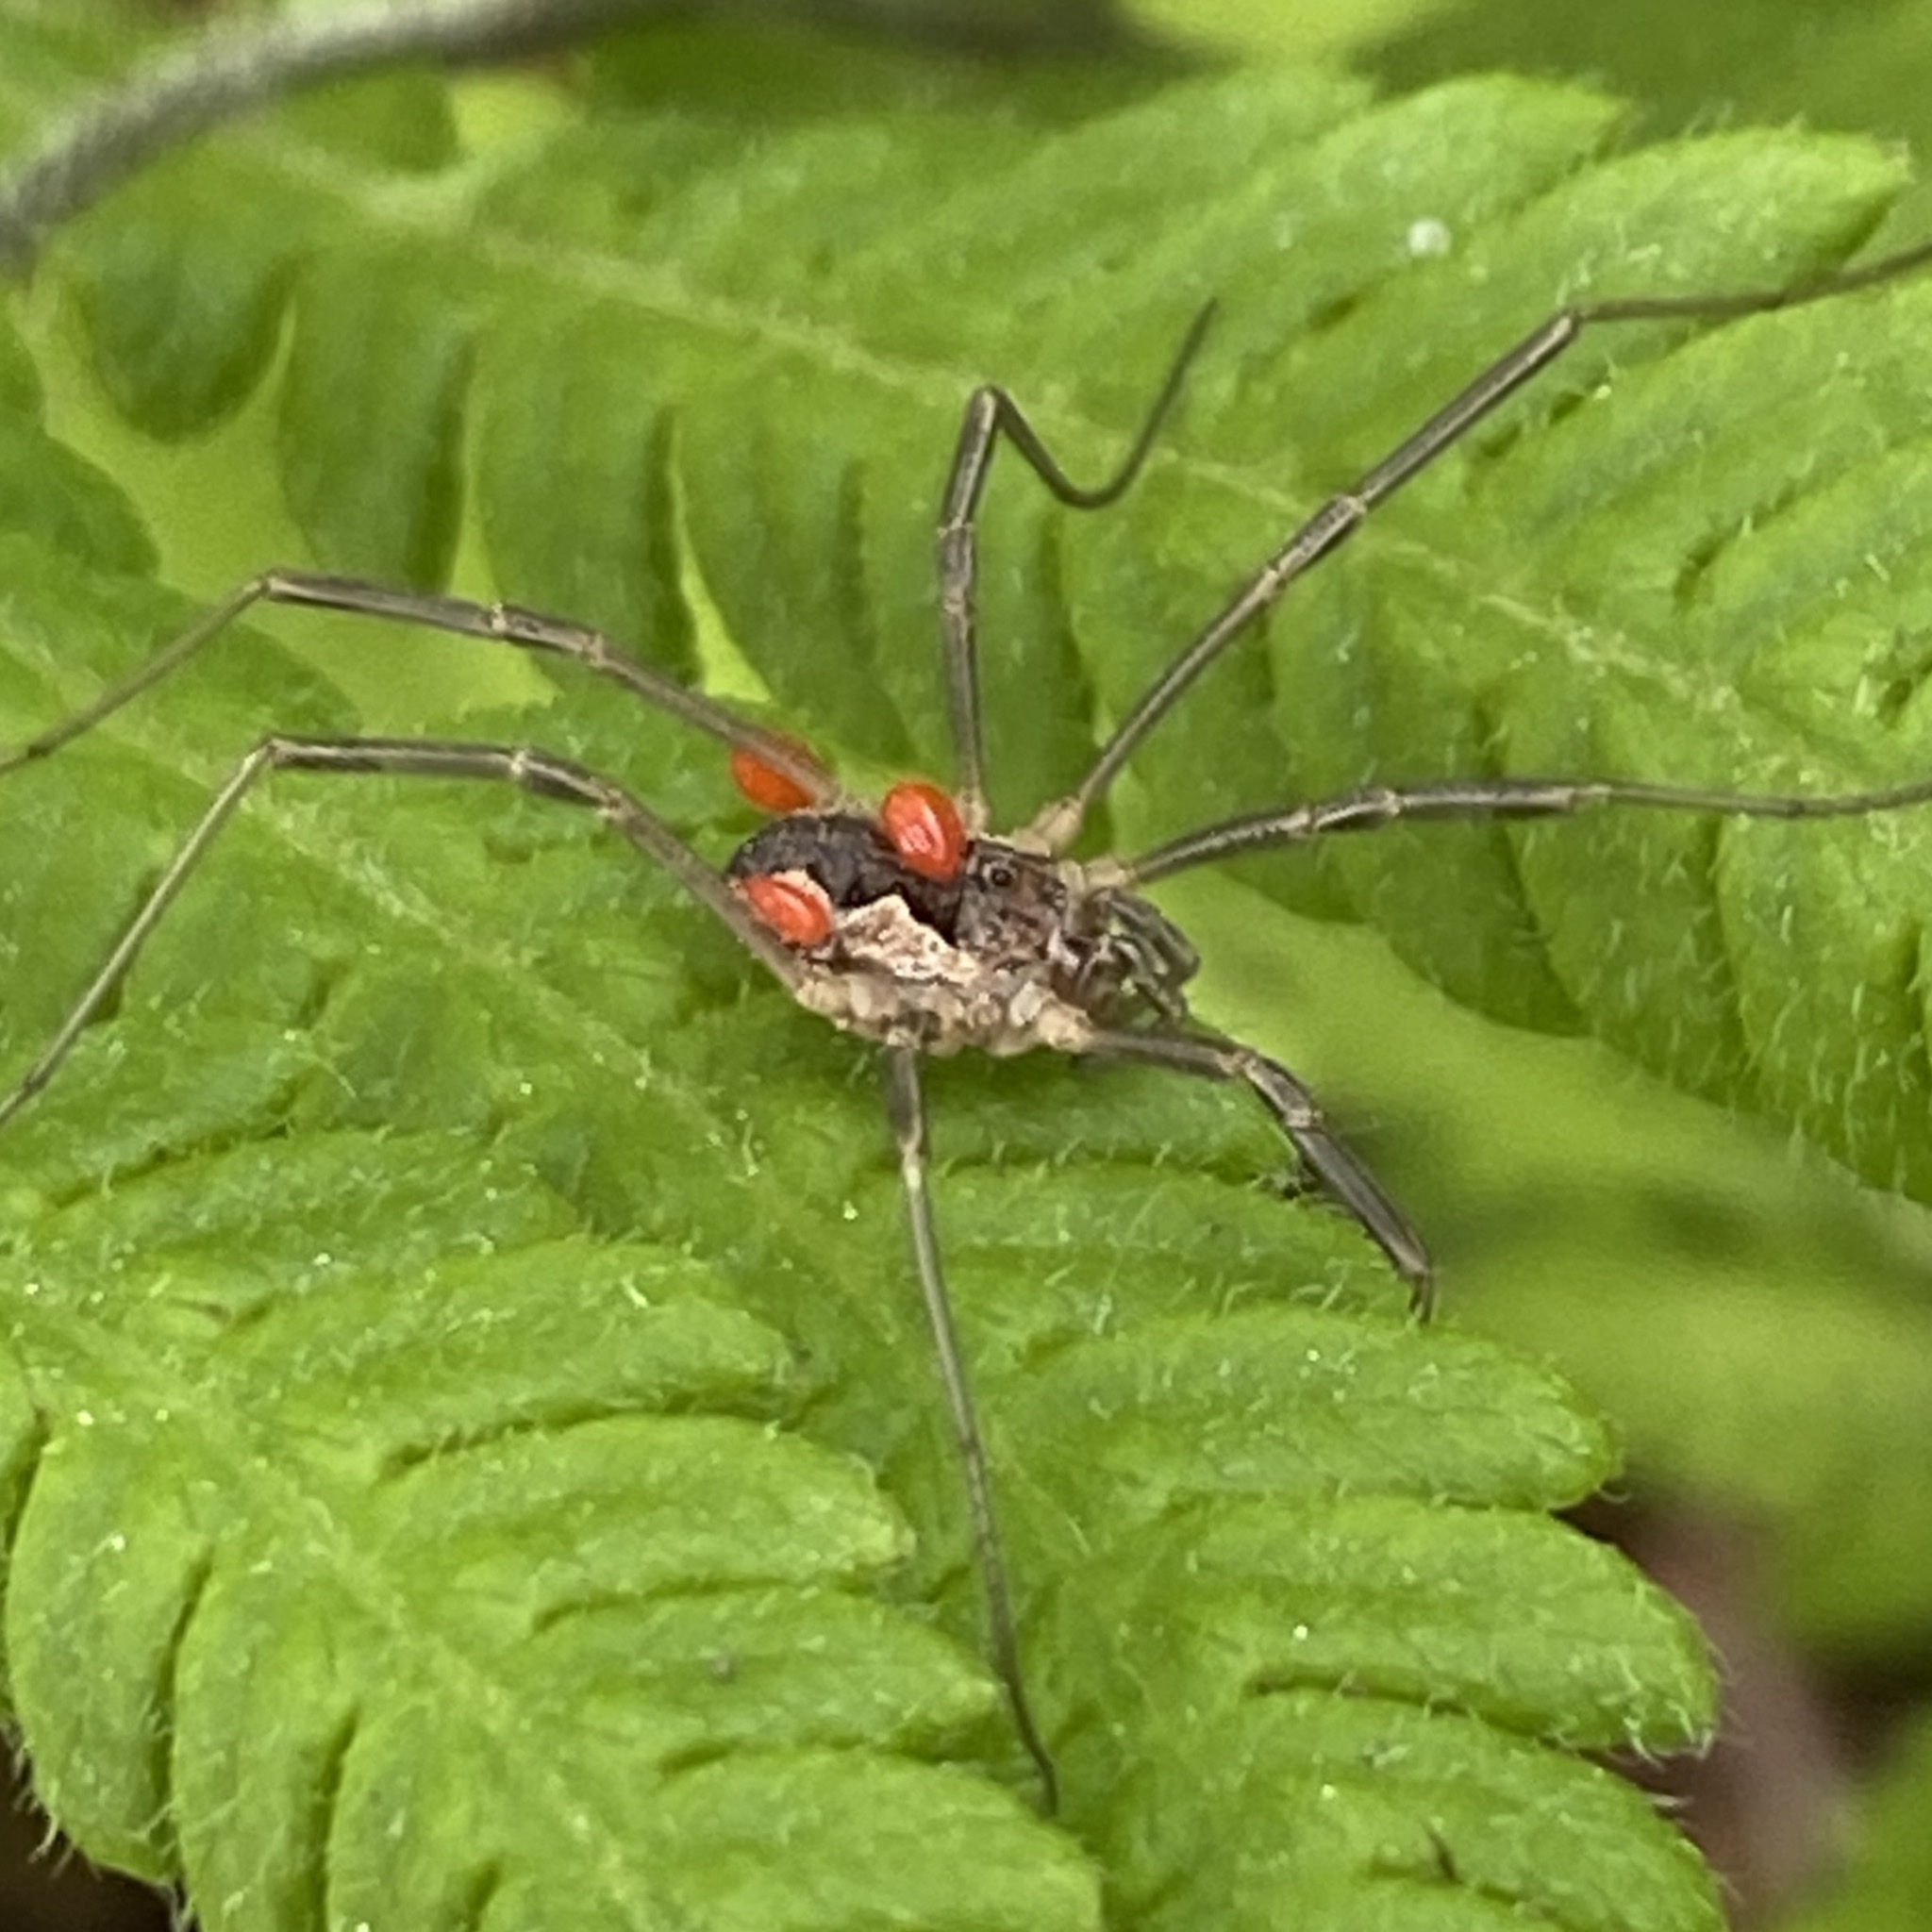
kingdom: Animalia
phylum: Arthropoda
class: Arachnida
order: Opiliones
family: Phalangiidae
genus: Mitopus
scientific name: Mitopus morio
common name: Saddleback harvestman
